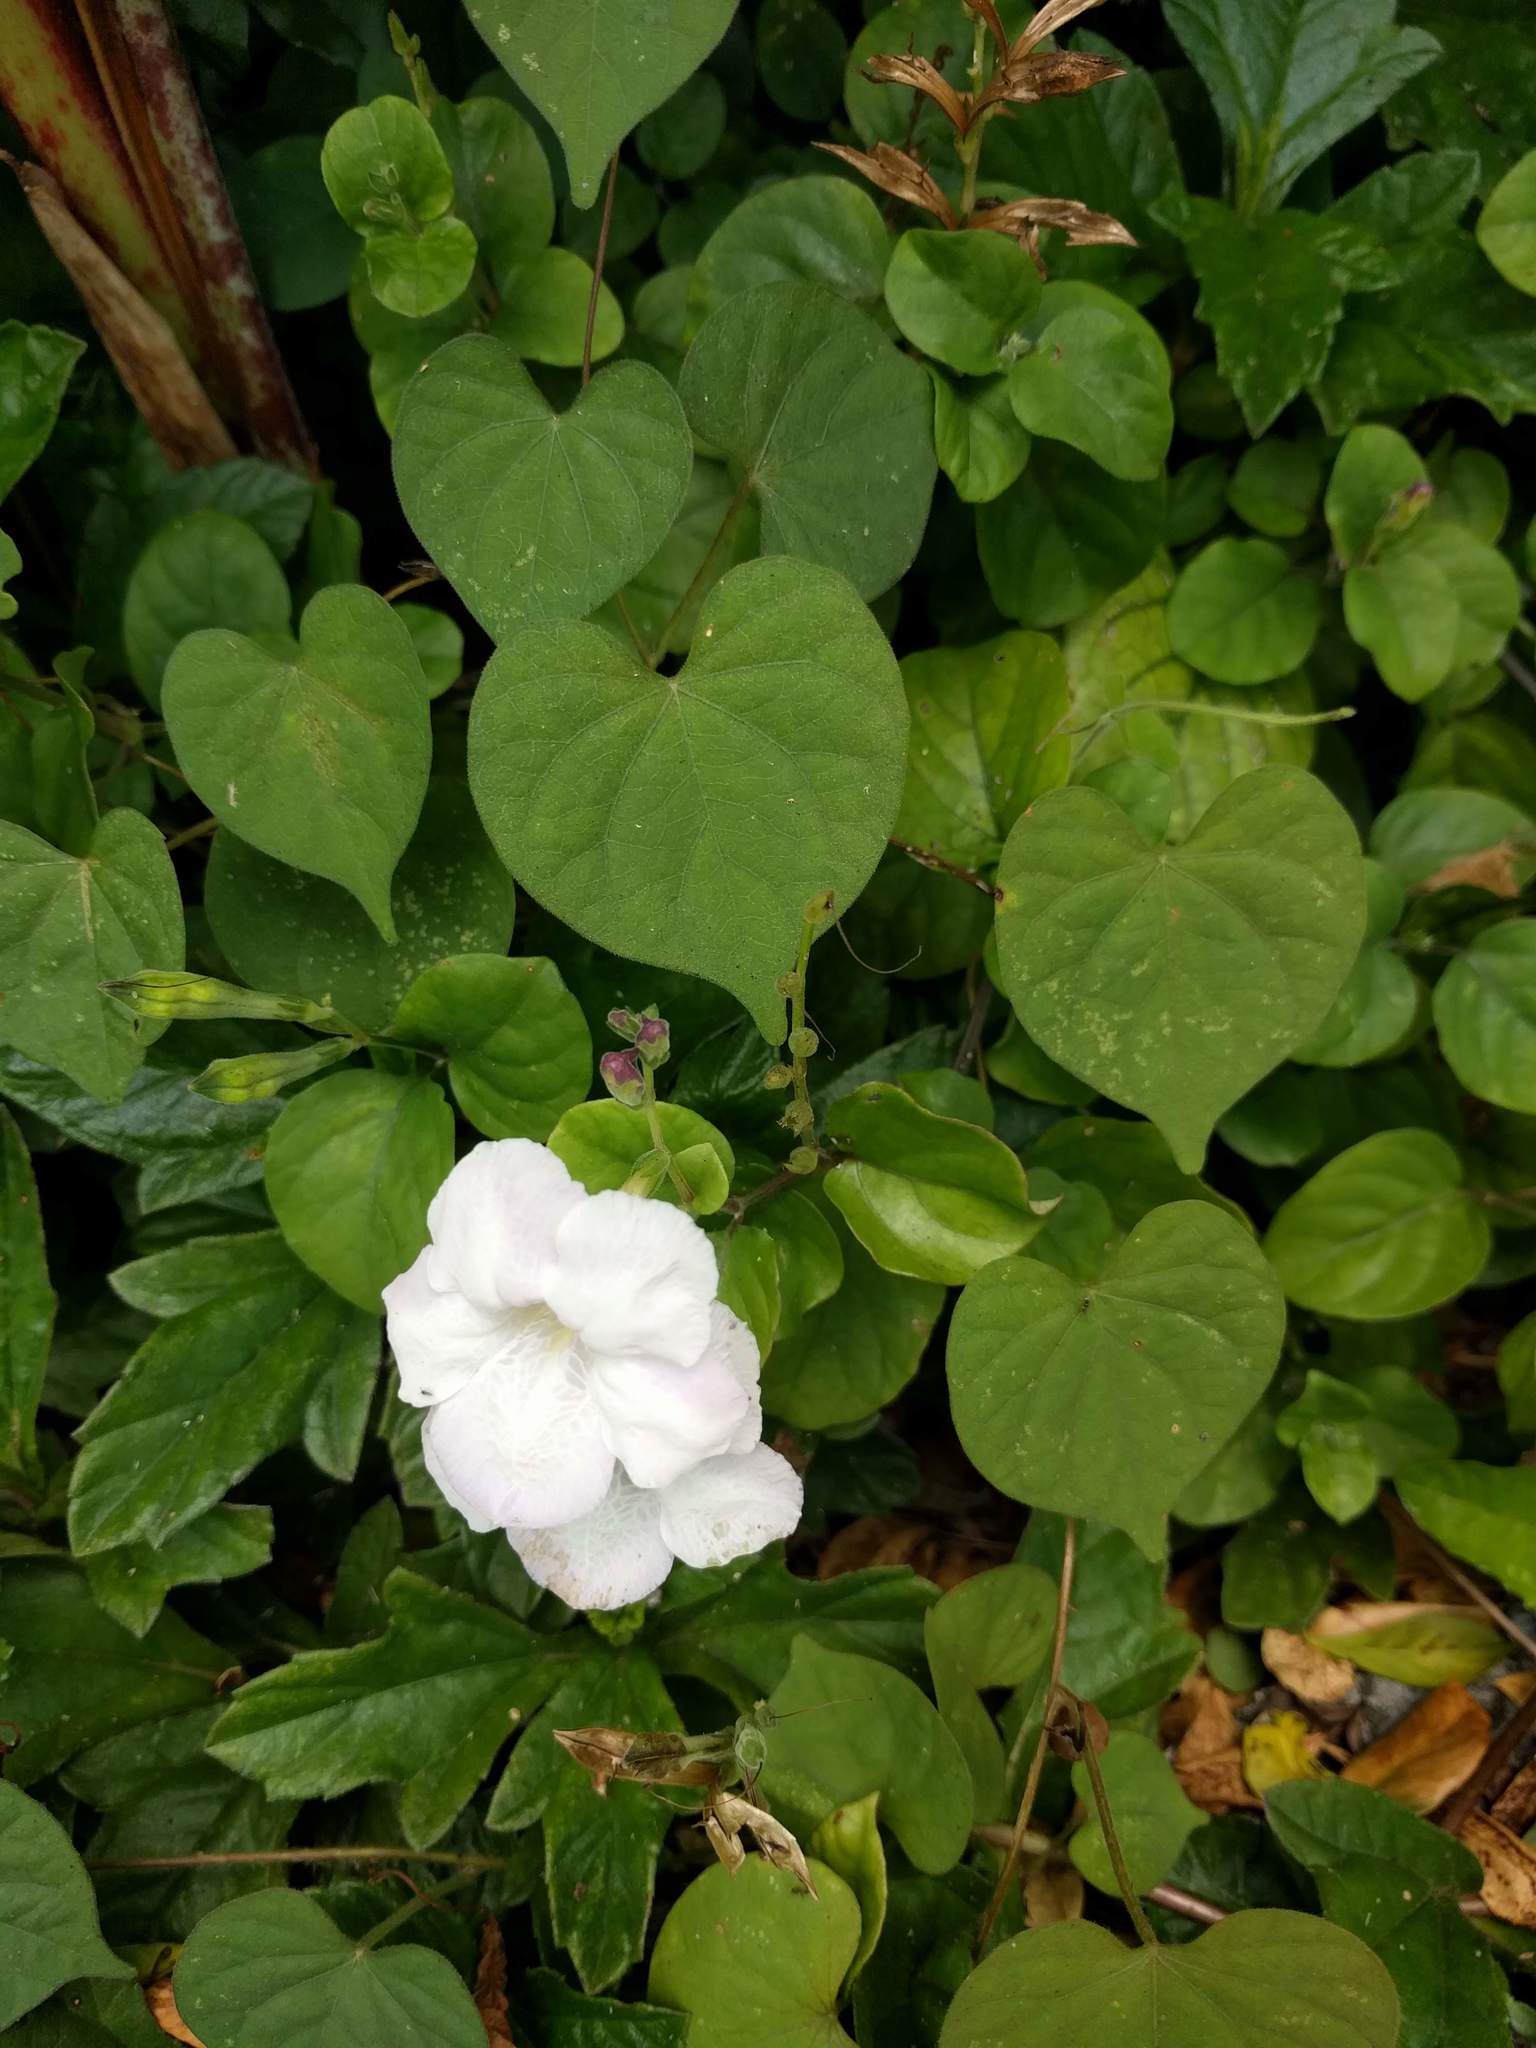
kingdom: Plantae
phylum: Tracheophyta
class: Magnoliopsida
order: Lamiales
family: Acanthaceae
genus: Asystasia
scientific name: Asystasia gangetica
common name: Chinese violet
